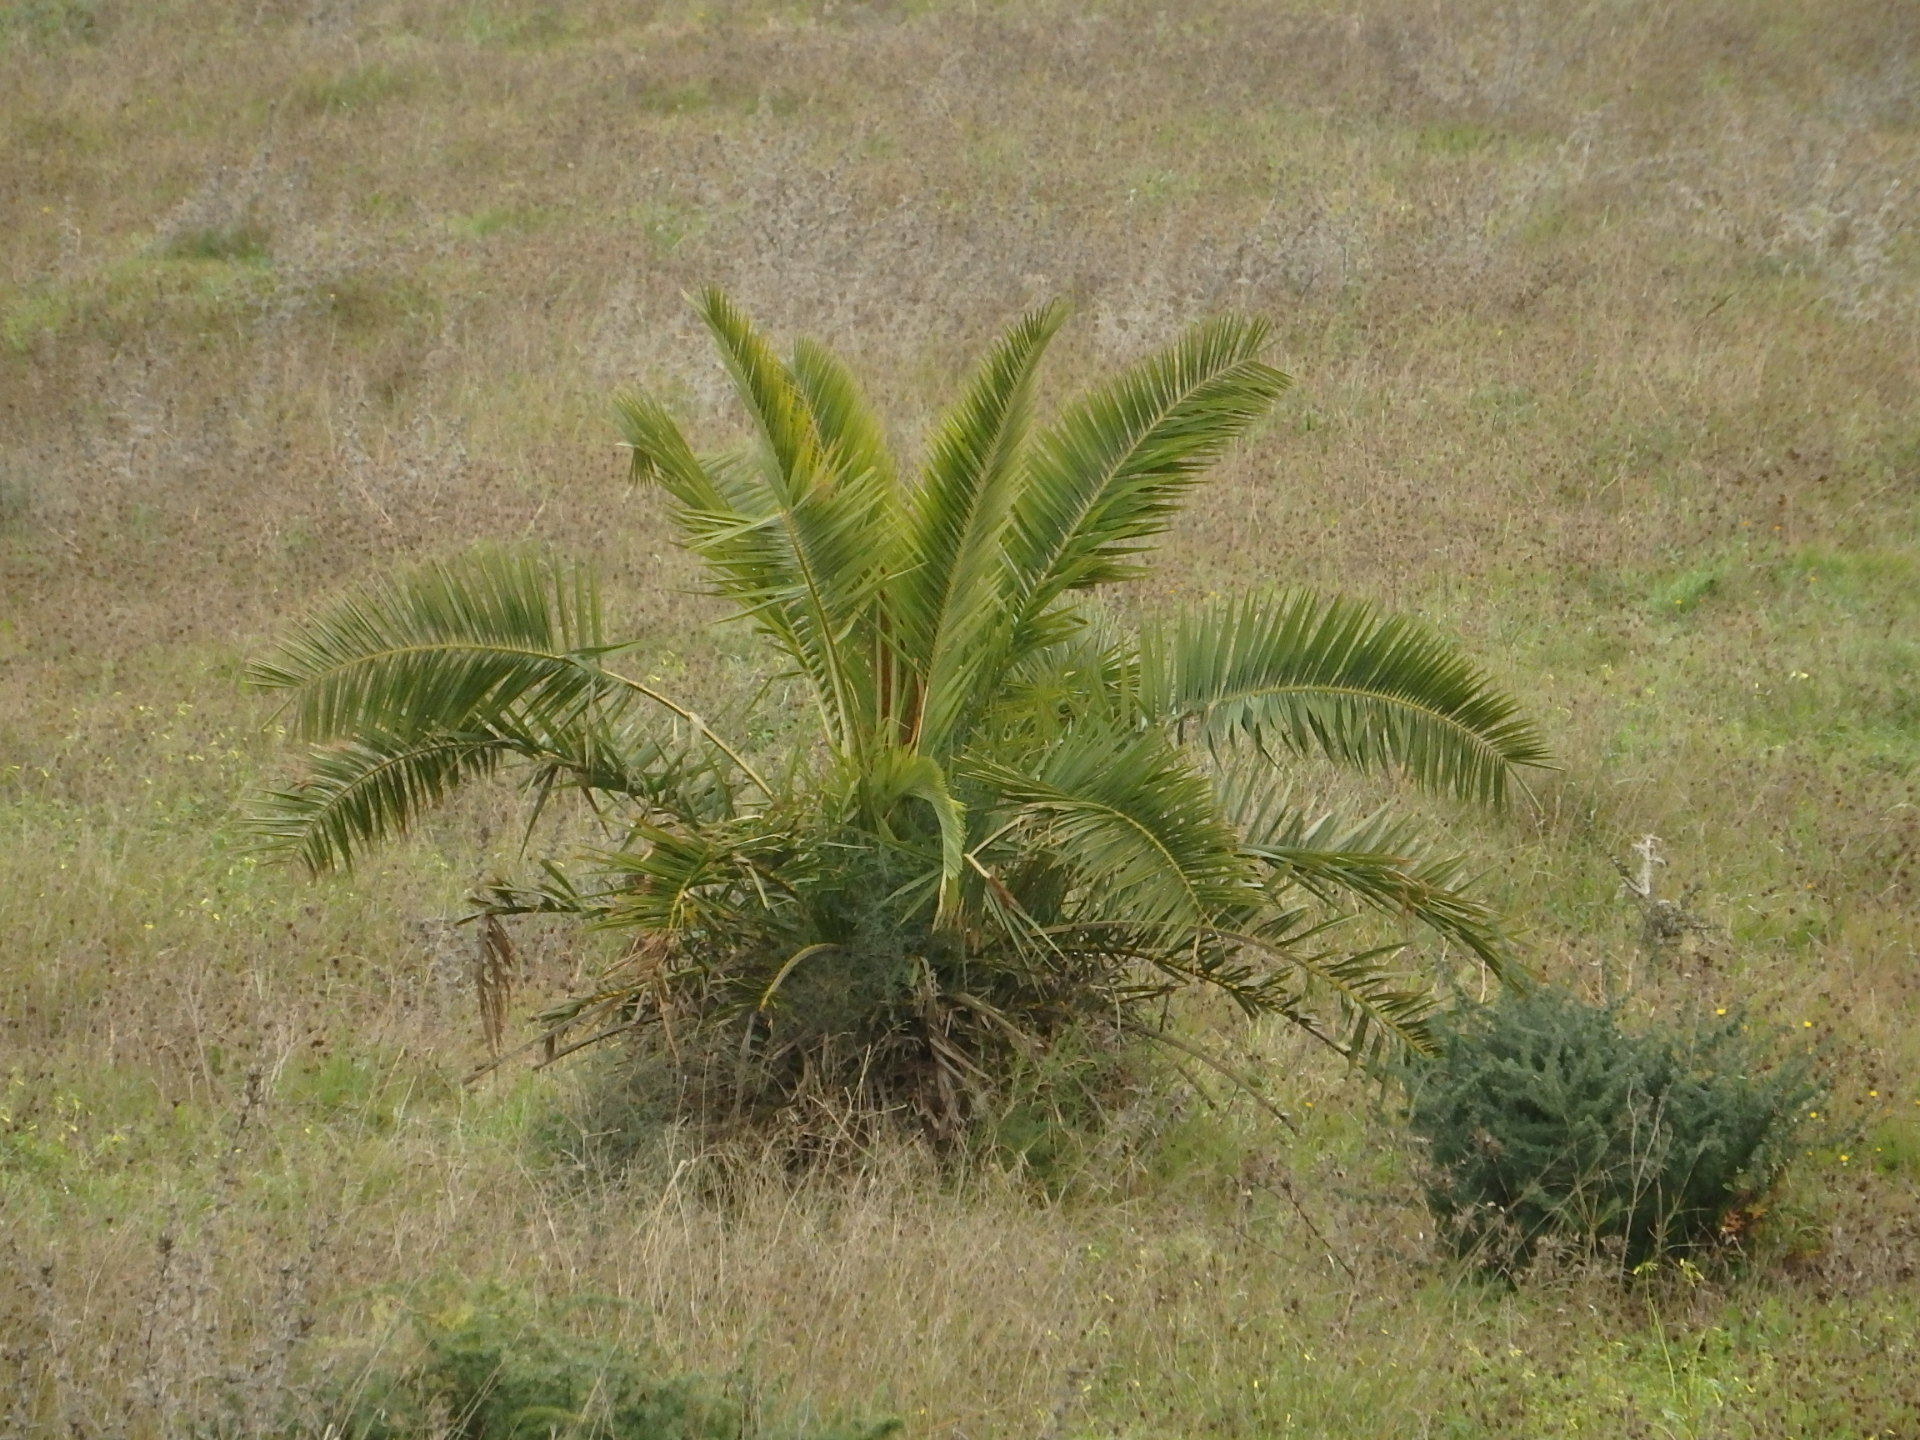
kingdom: Plantae
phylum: Tracheophyta
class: Liliopsida
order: Arecales
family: Arecaceae
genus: Phoenix
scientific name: Phoenix canariensis
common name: Canary island date palm
